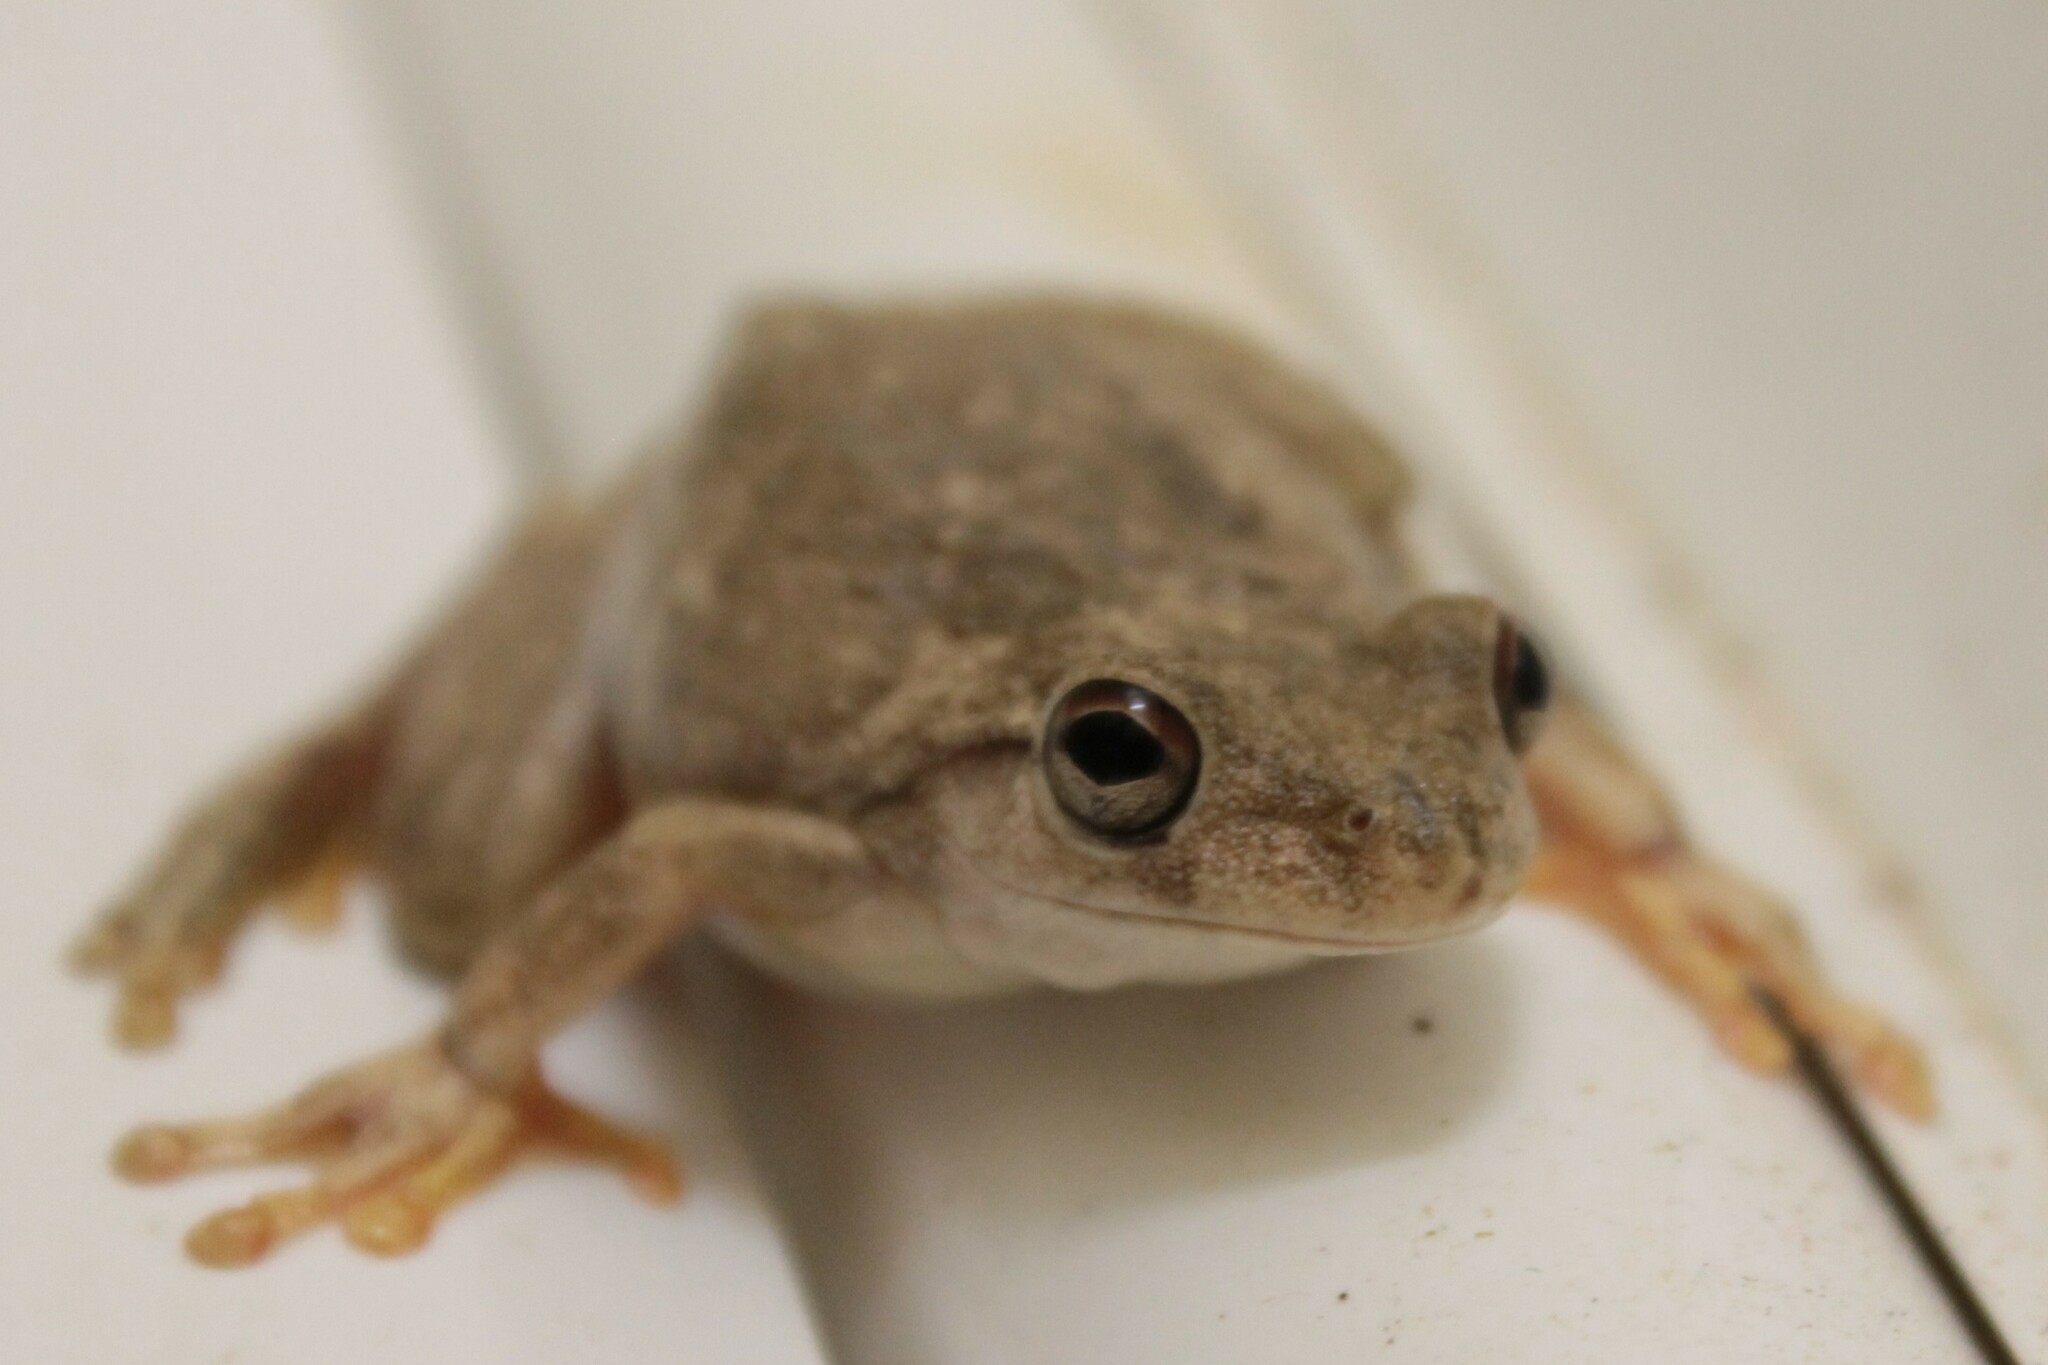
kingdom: Animalia
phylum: Chordata
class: Amphibia
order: Anura
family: Pelodryadidae
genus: Litoria
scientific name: Litoria
